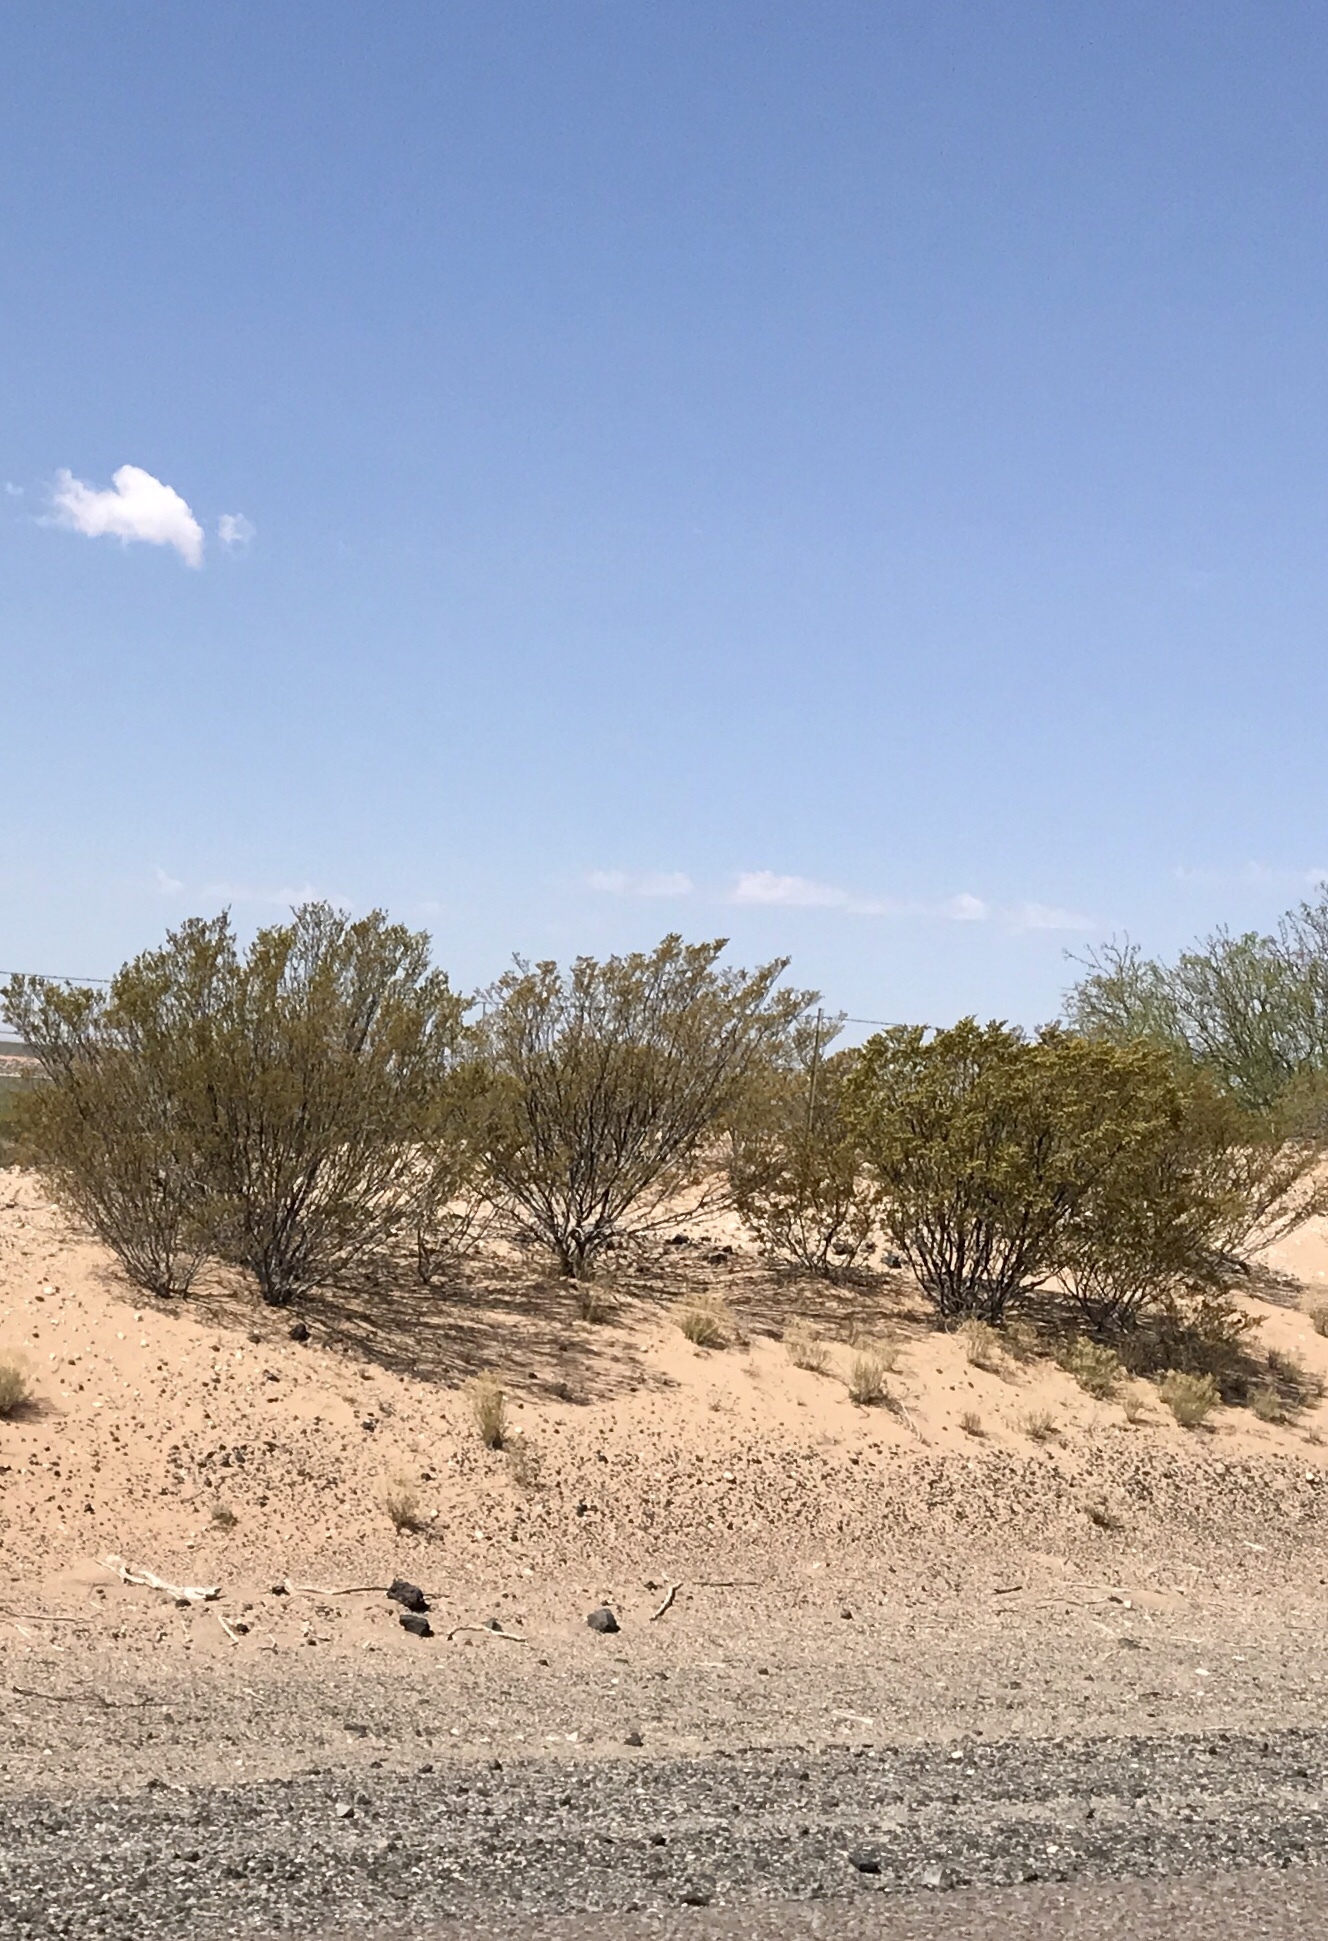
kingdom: Plantae
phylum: Tracheophyta
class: Magnoliopsida
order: Zygophyllales
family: Zygophyllaceae
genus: Larrea
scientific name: Larrea tridentata
